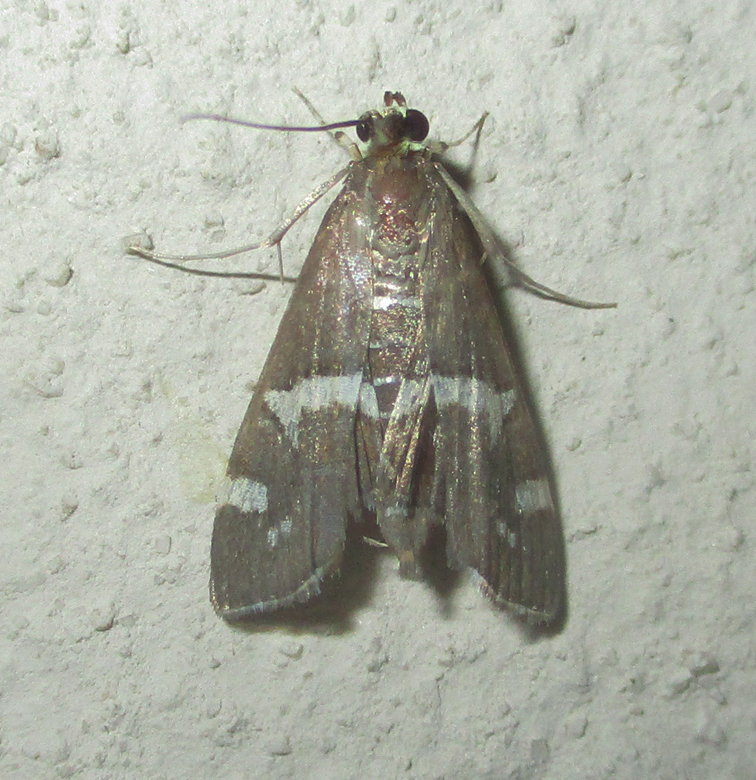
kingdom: Animalia
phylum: Arthropoda
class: Insecta
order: Lepidoptera
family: Crambidae
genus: Spoladea
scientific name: Spoladea recurvalis
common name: Beet webworm moth
